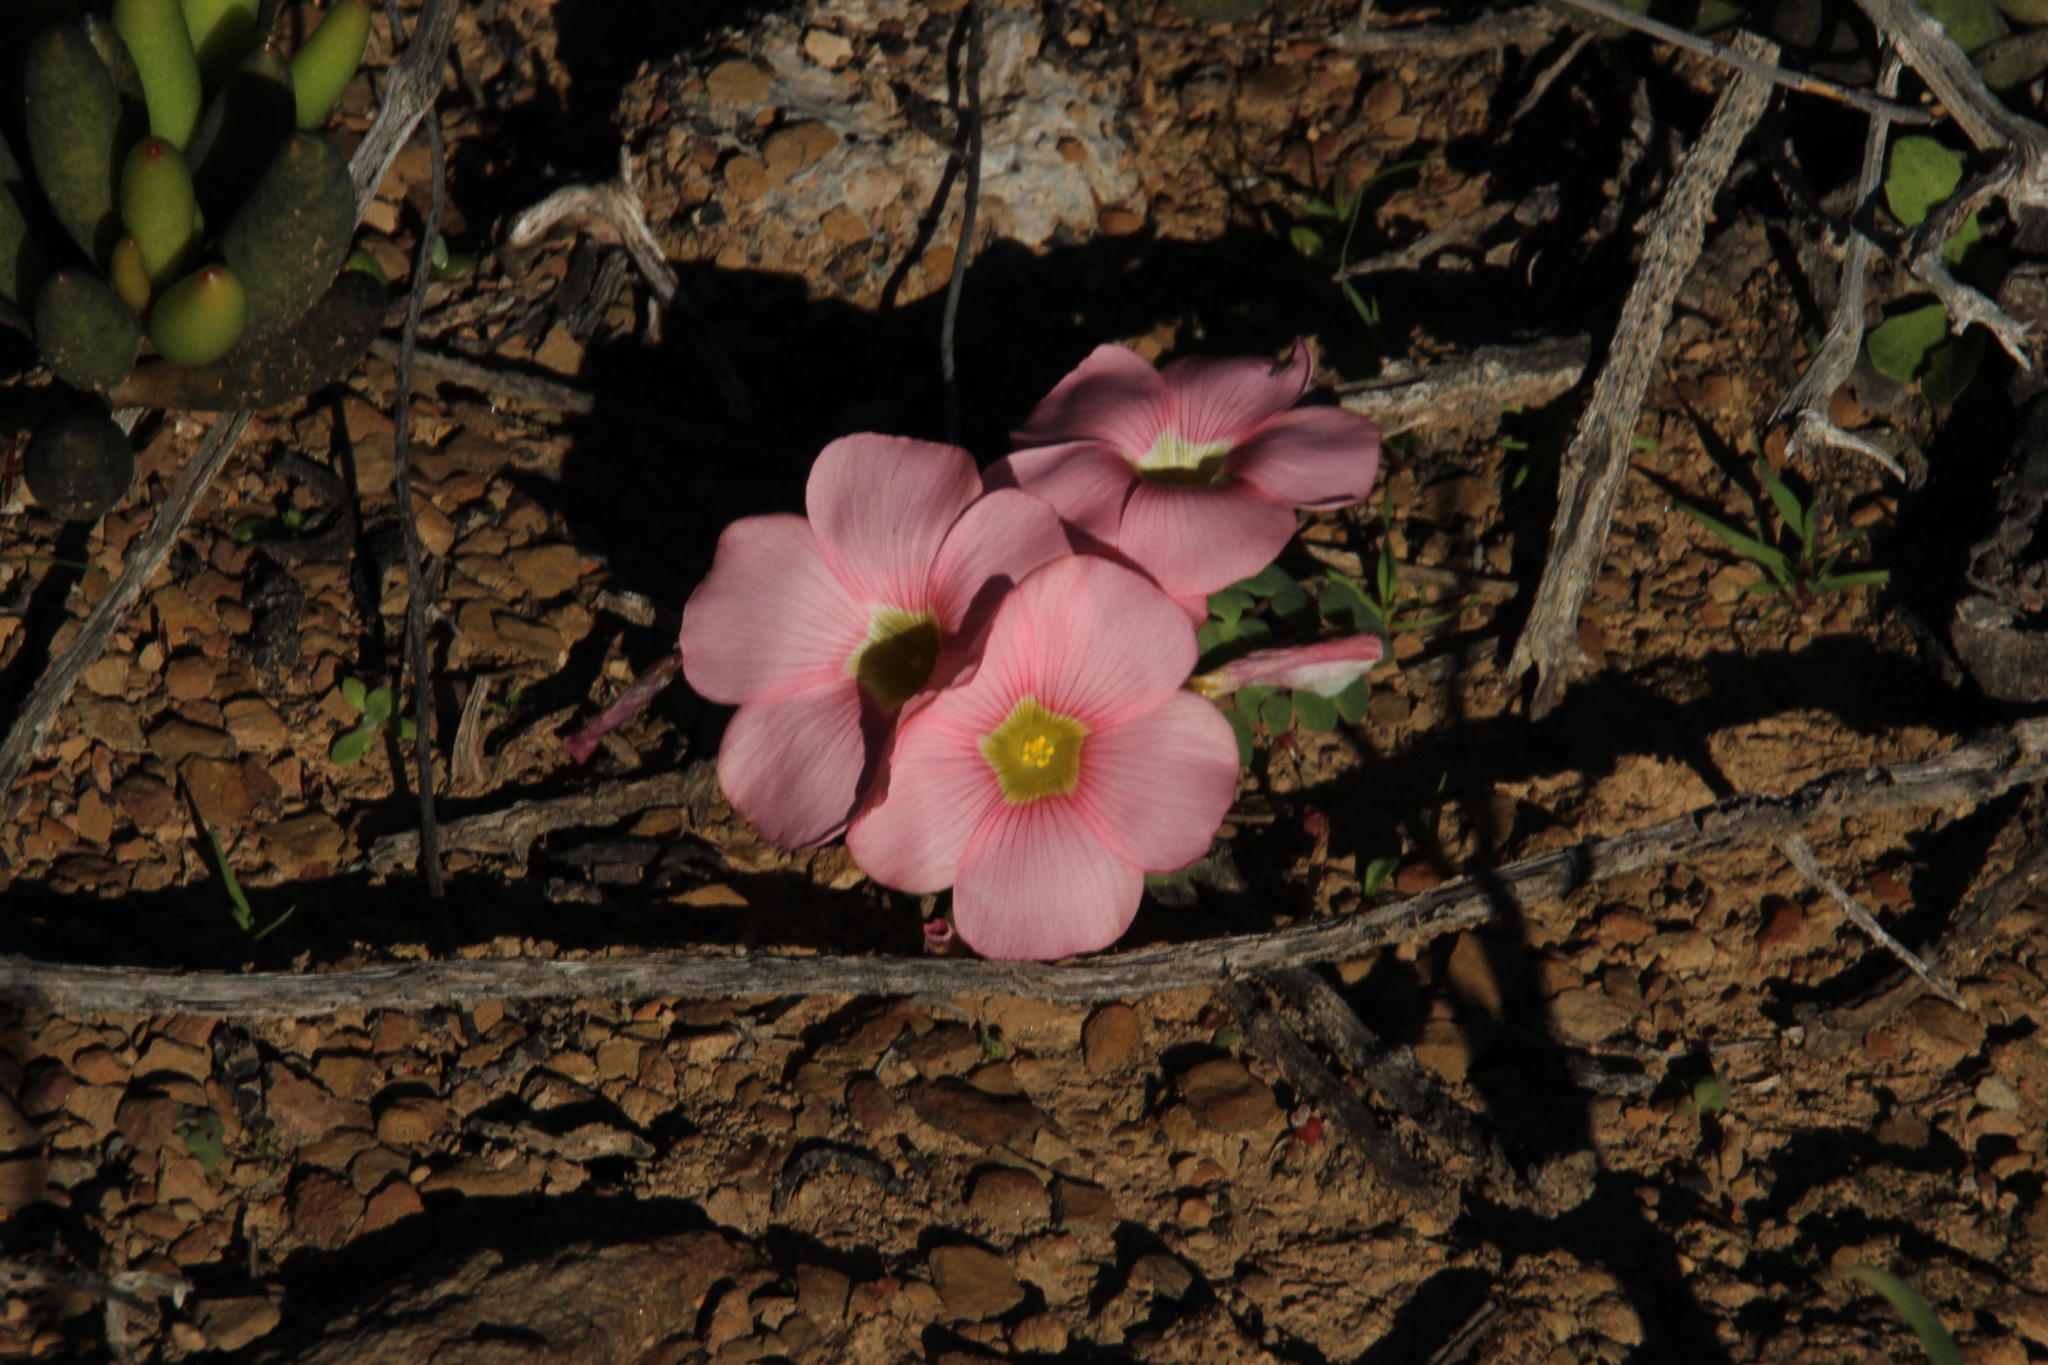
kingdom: Plantae
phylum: Tracheophyta
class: Magnoliopsida
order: Oxalidales
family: Oxalidaceae
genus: Oxalis
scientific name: Oxalis convexula
